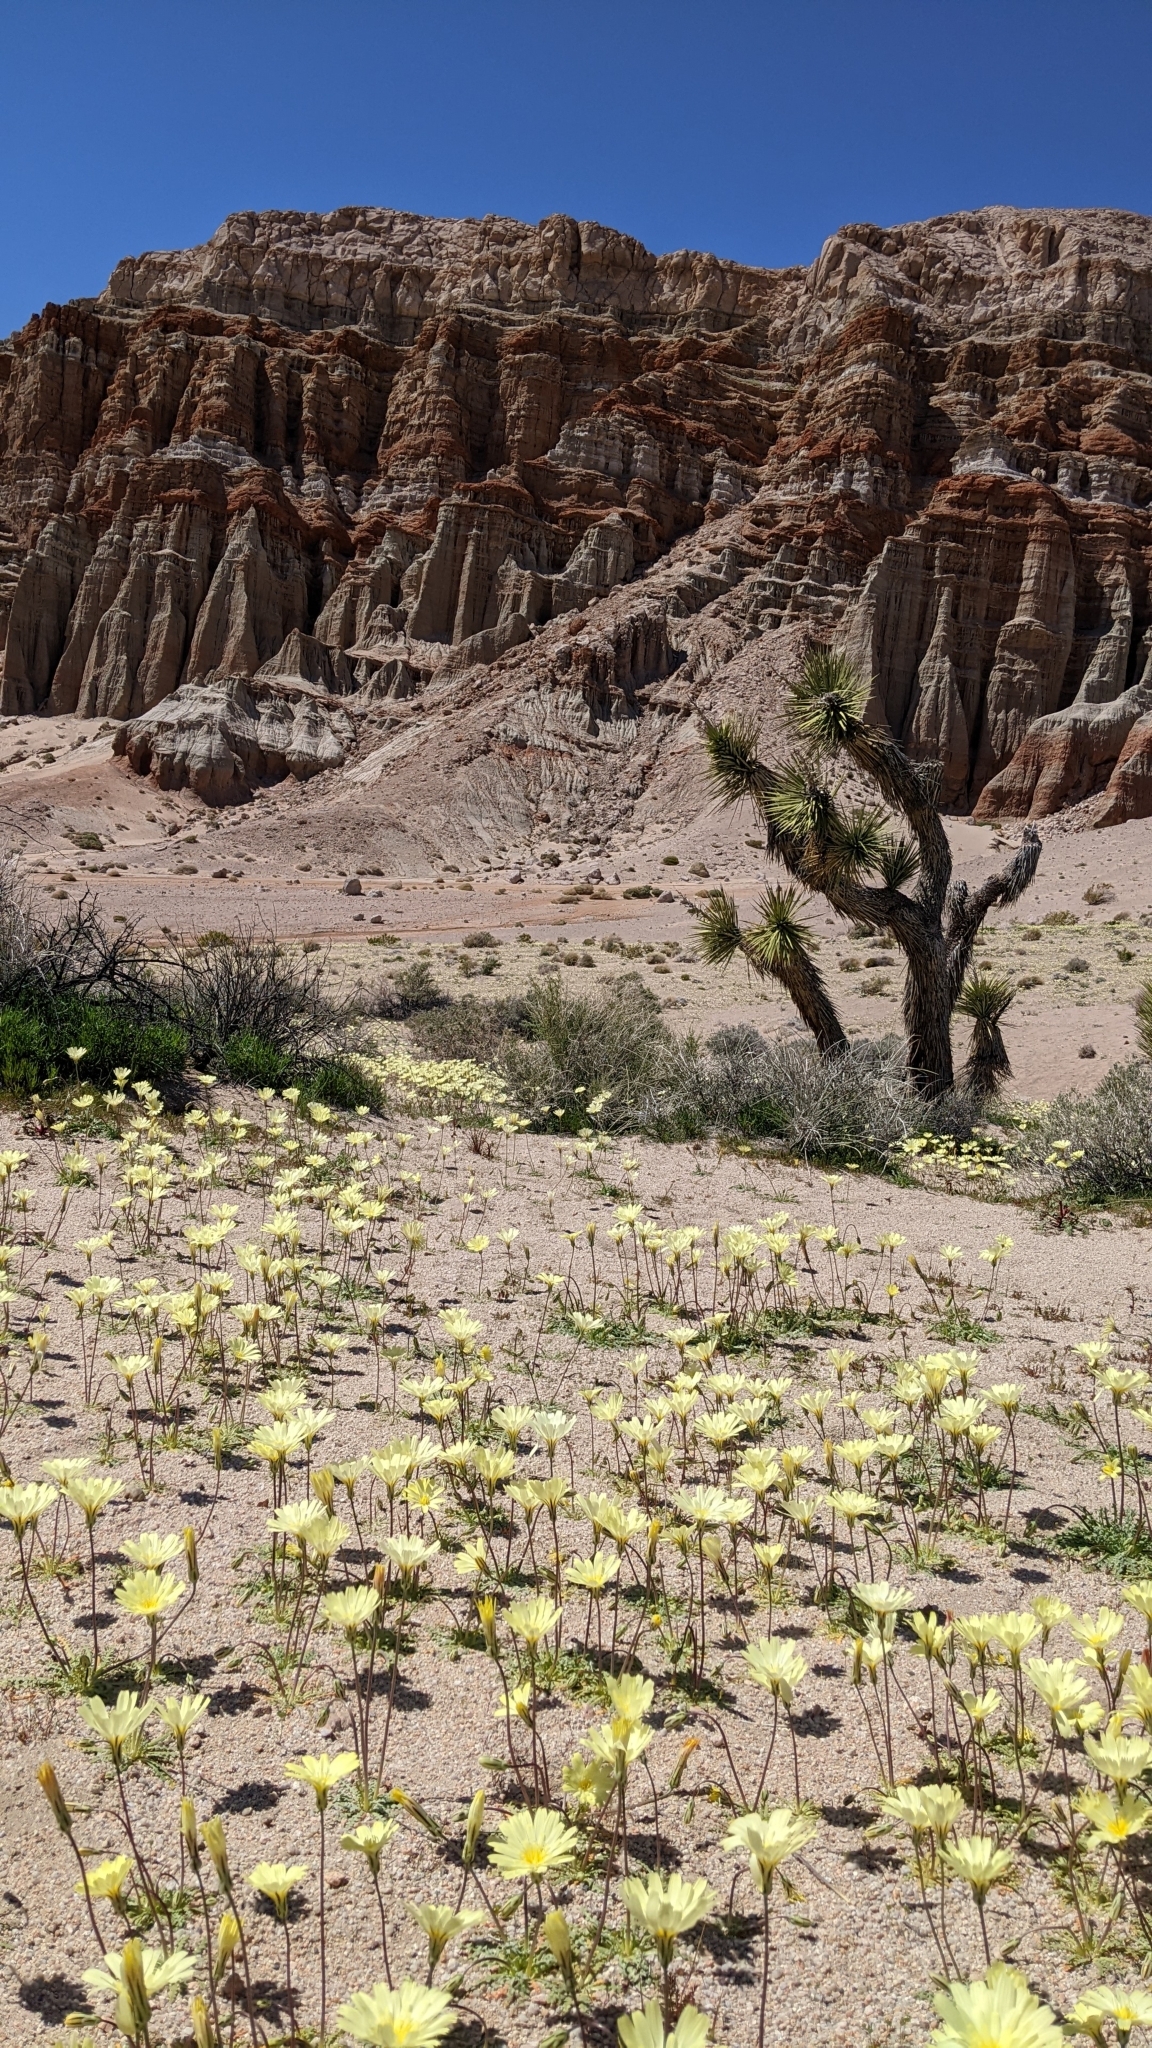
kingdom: Plantae
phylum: Tracheophyta
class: Magnoliopsida
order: Asterales
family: Asteraceae
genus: Anisocoma
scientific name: Anisocoma acaulis
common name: Scalebud
